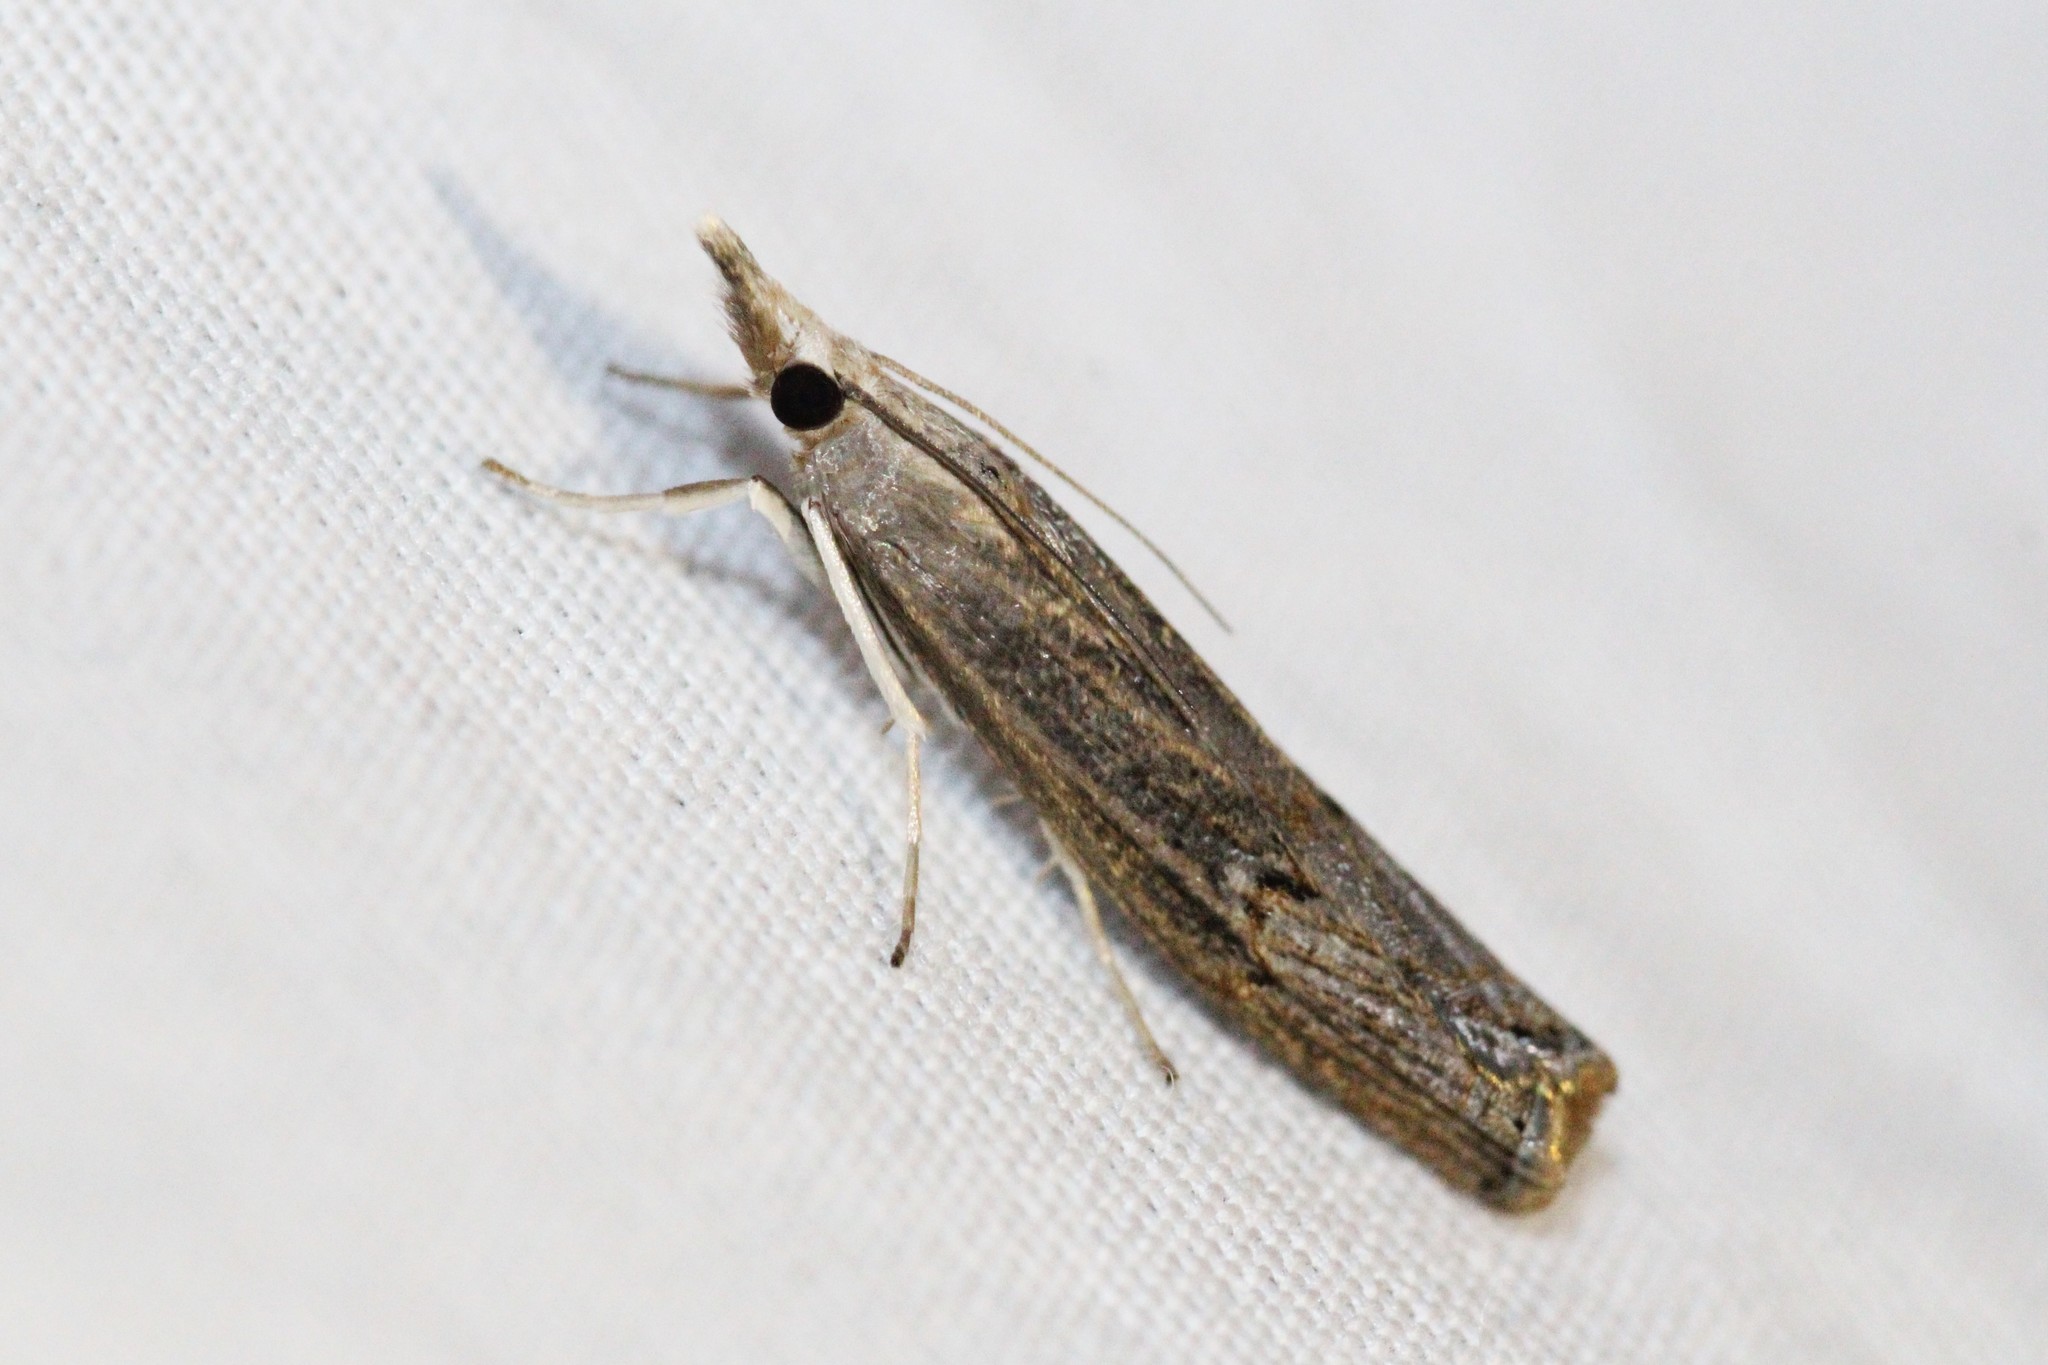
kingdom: Animalia
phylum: Arthropoda
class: Insecta
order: Lepidoptera
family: Crambidae
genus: Parapediasia
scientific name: Parapediasia teterellus
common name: Bluegrass webworm moth
